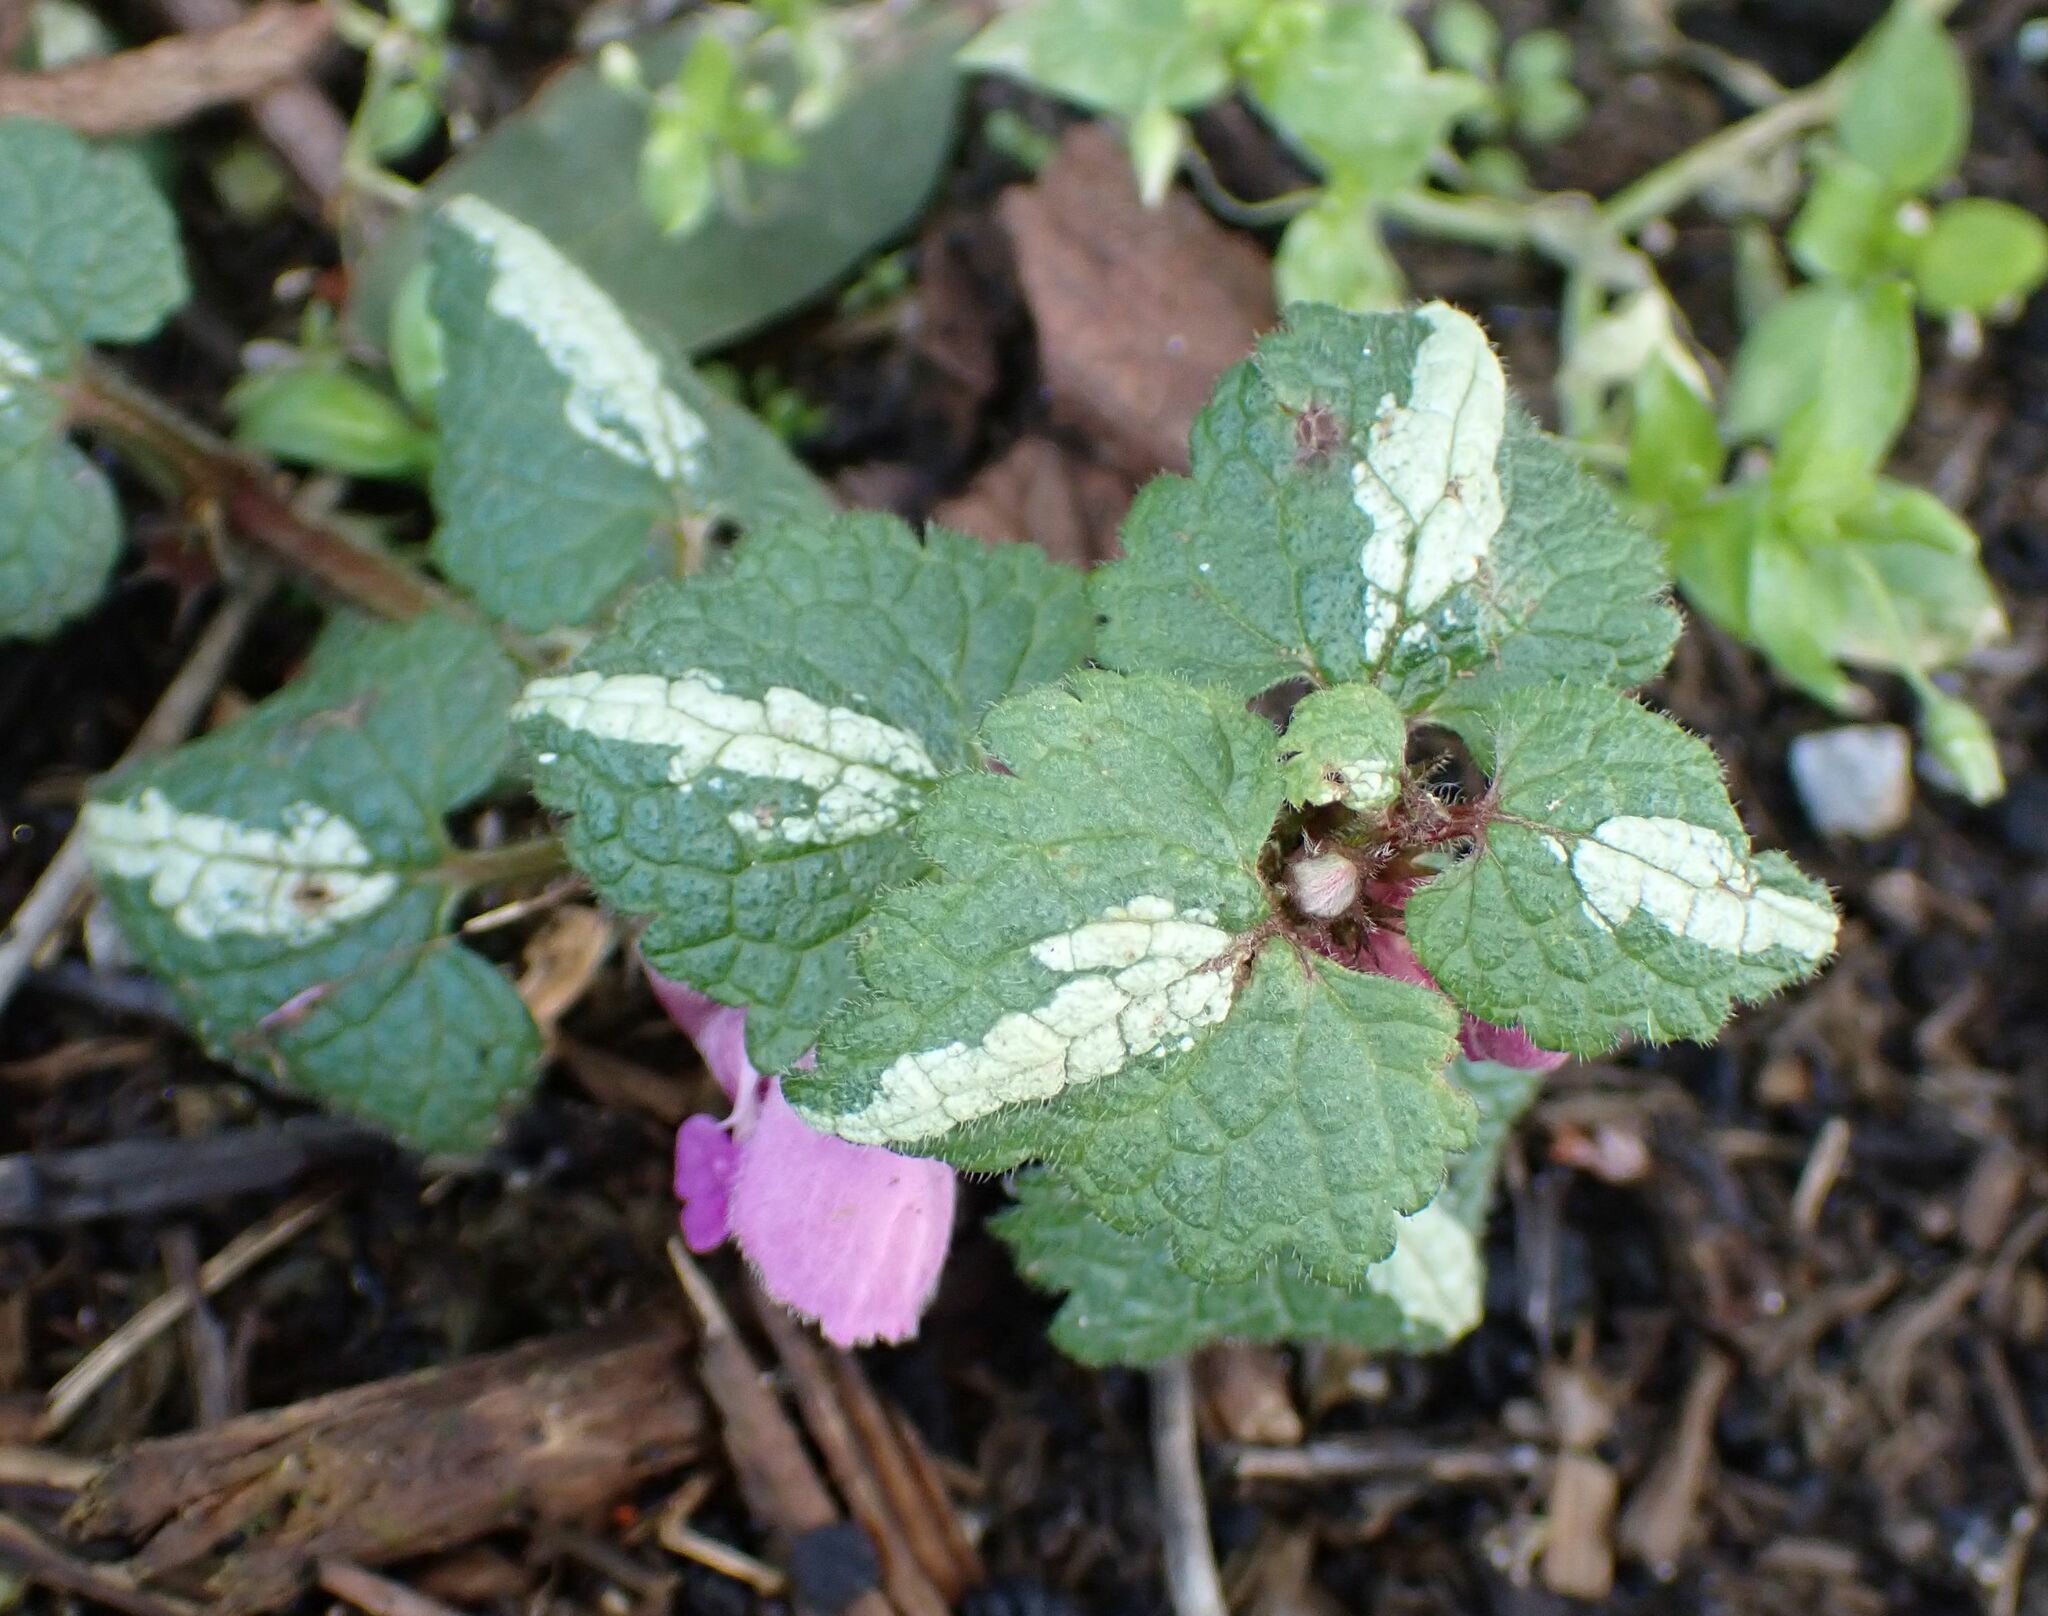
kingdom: Plantae
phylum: Tracheophyta
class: Magnoliopsida
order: Lamiales
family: Lamiaceae
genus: Lamium
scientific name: Lamium maculatum
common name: Spotted dead-nettle
